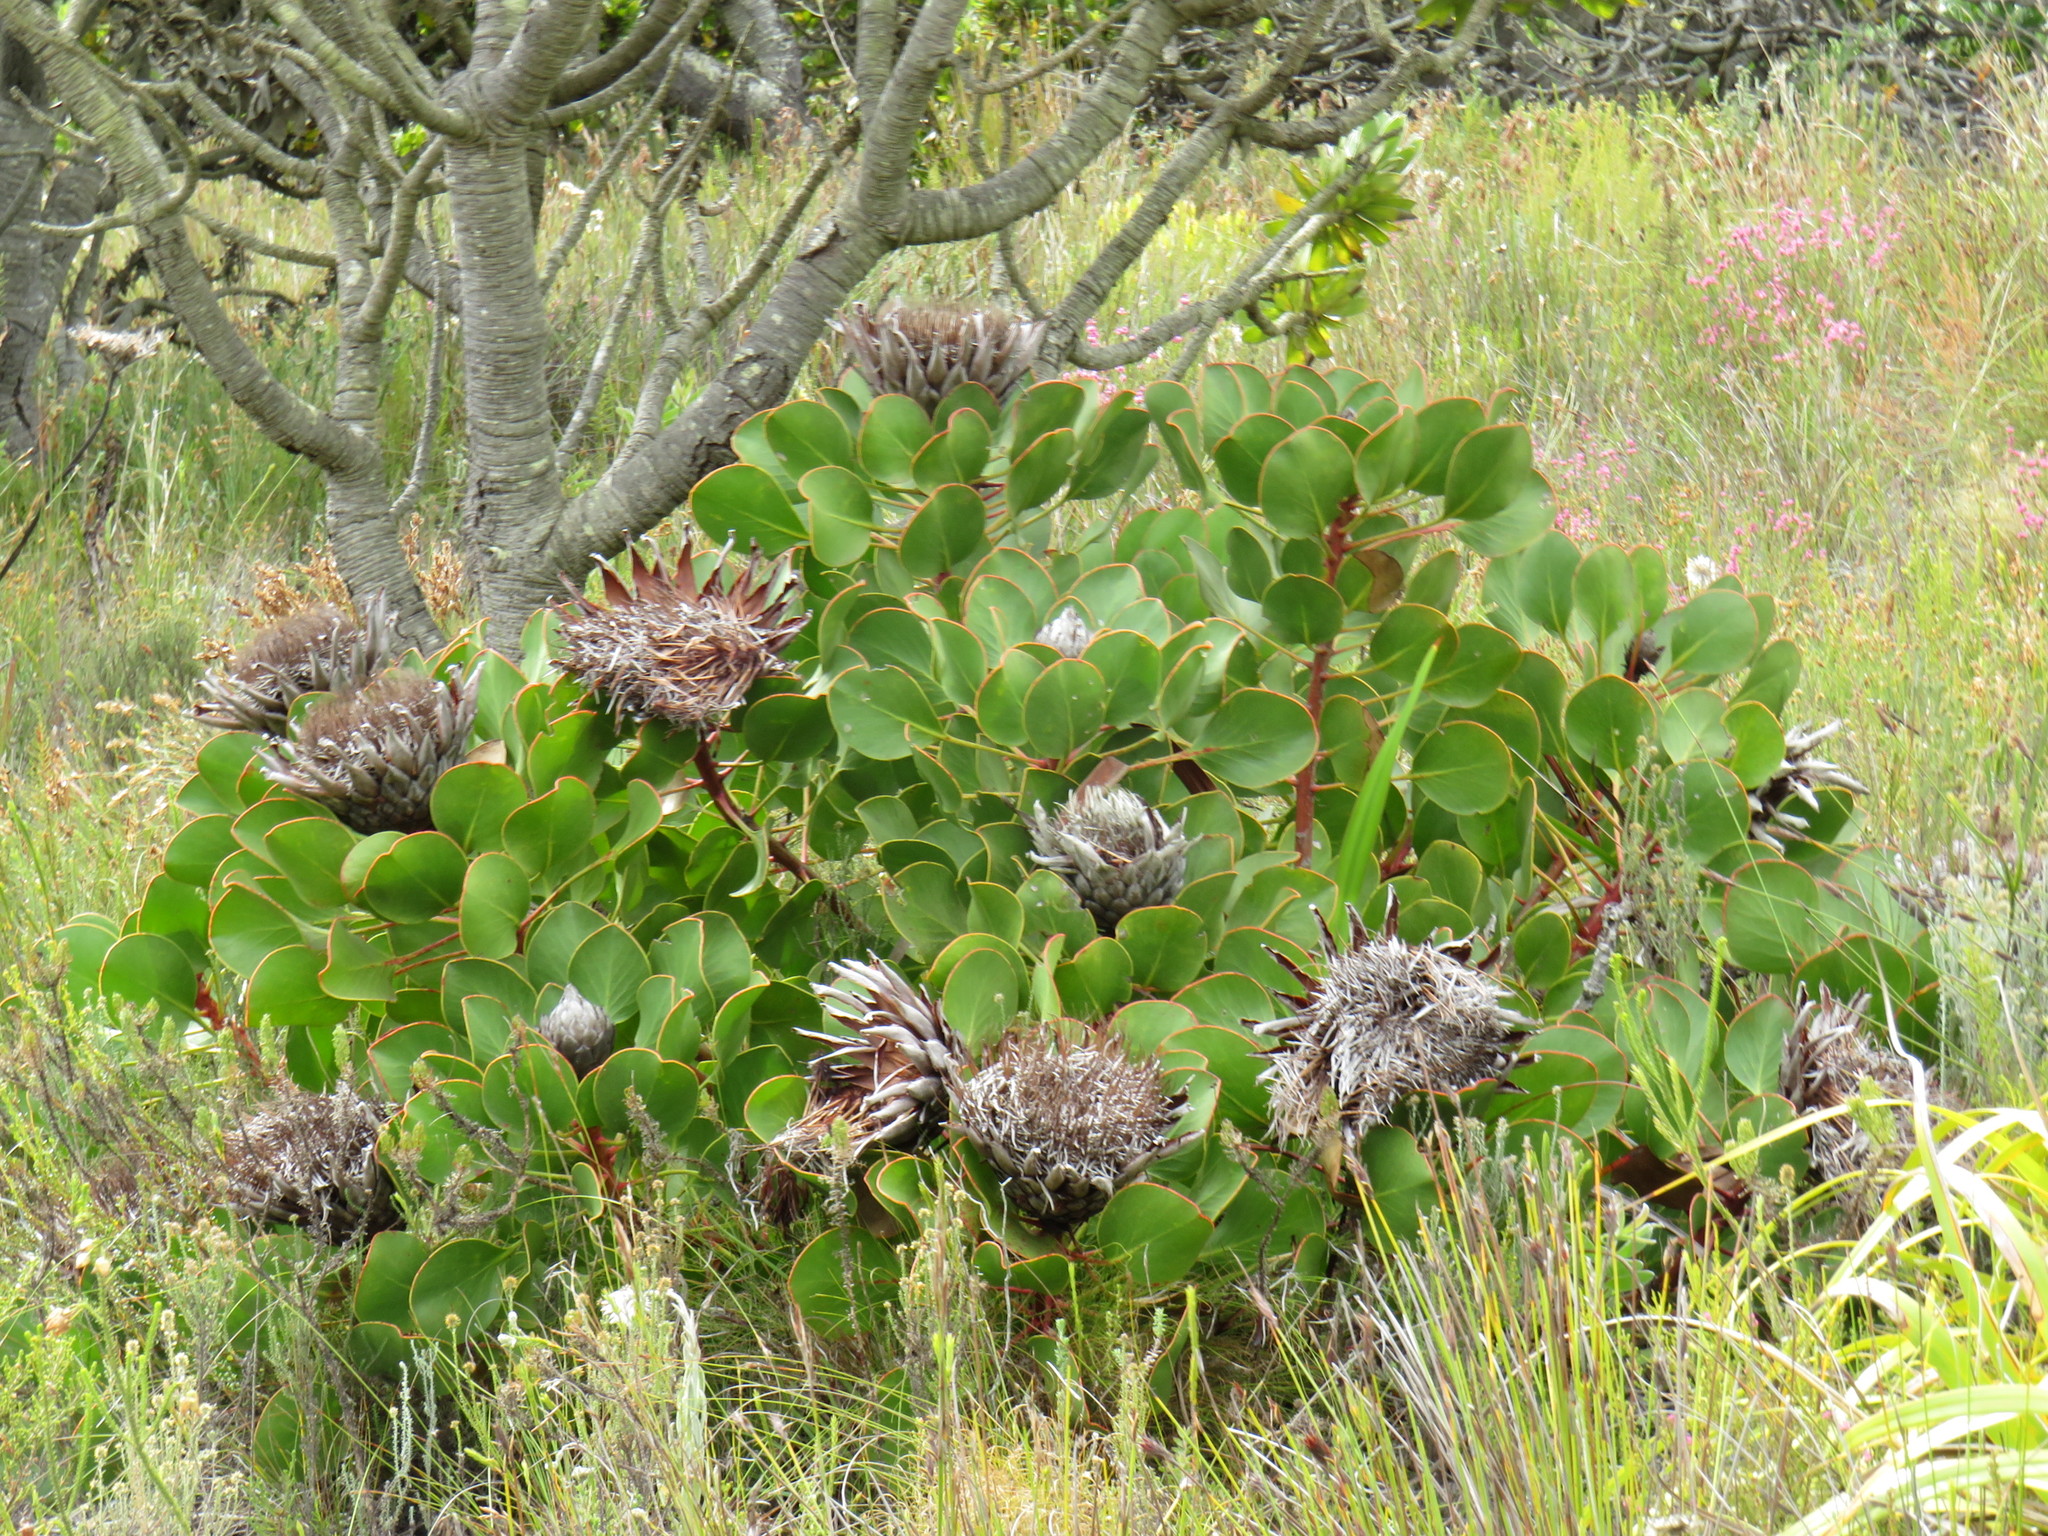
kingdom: Plantae
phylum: Tracheophyta
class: Magnoliopsida
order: Proteales
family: Proteaceae
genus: Protea
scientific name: Protea cynaroides
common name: King protea
